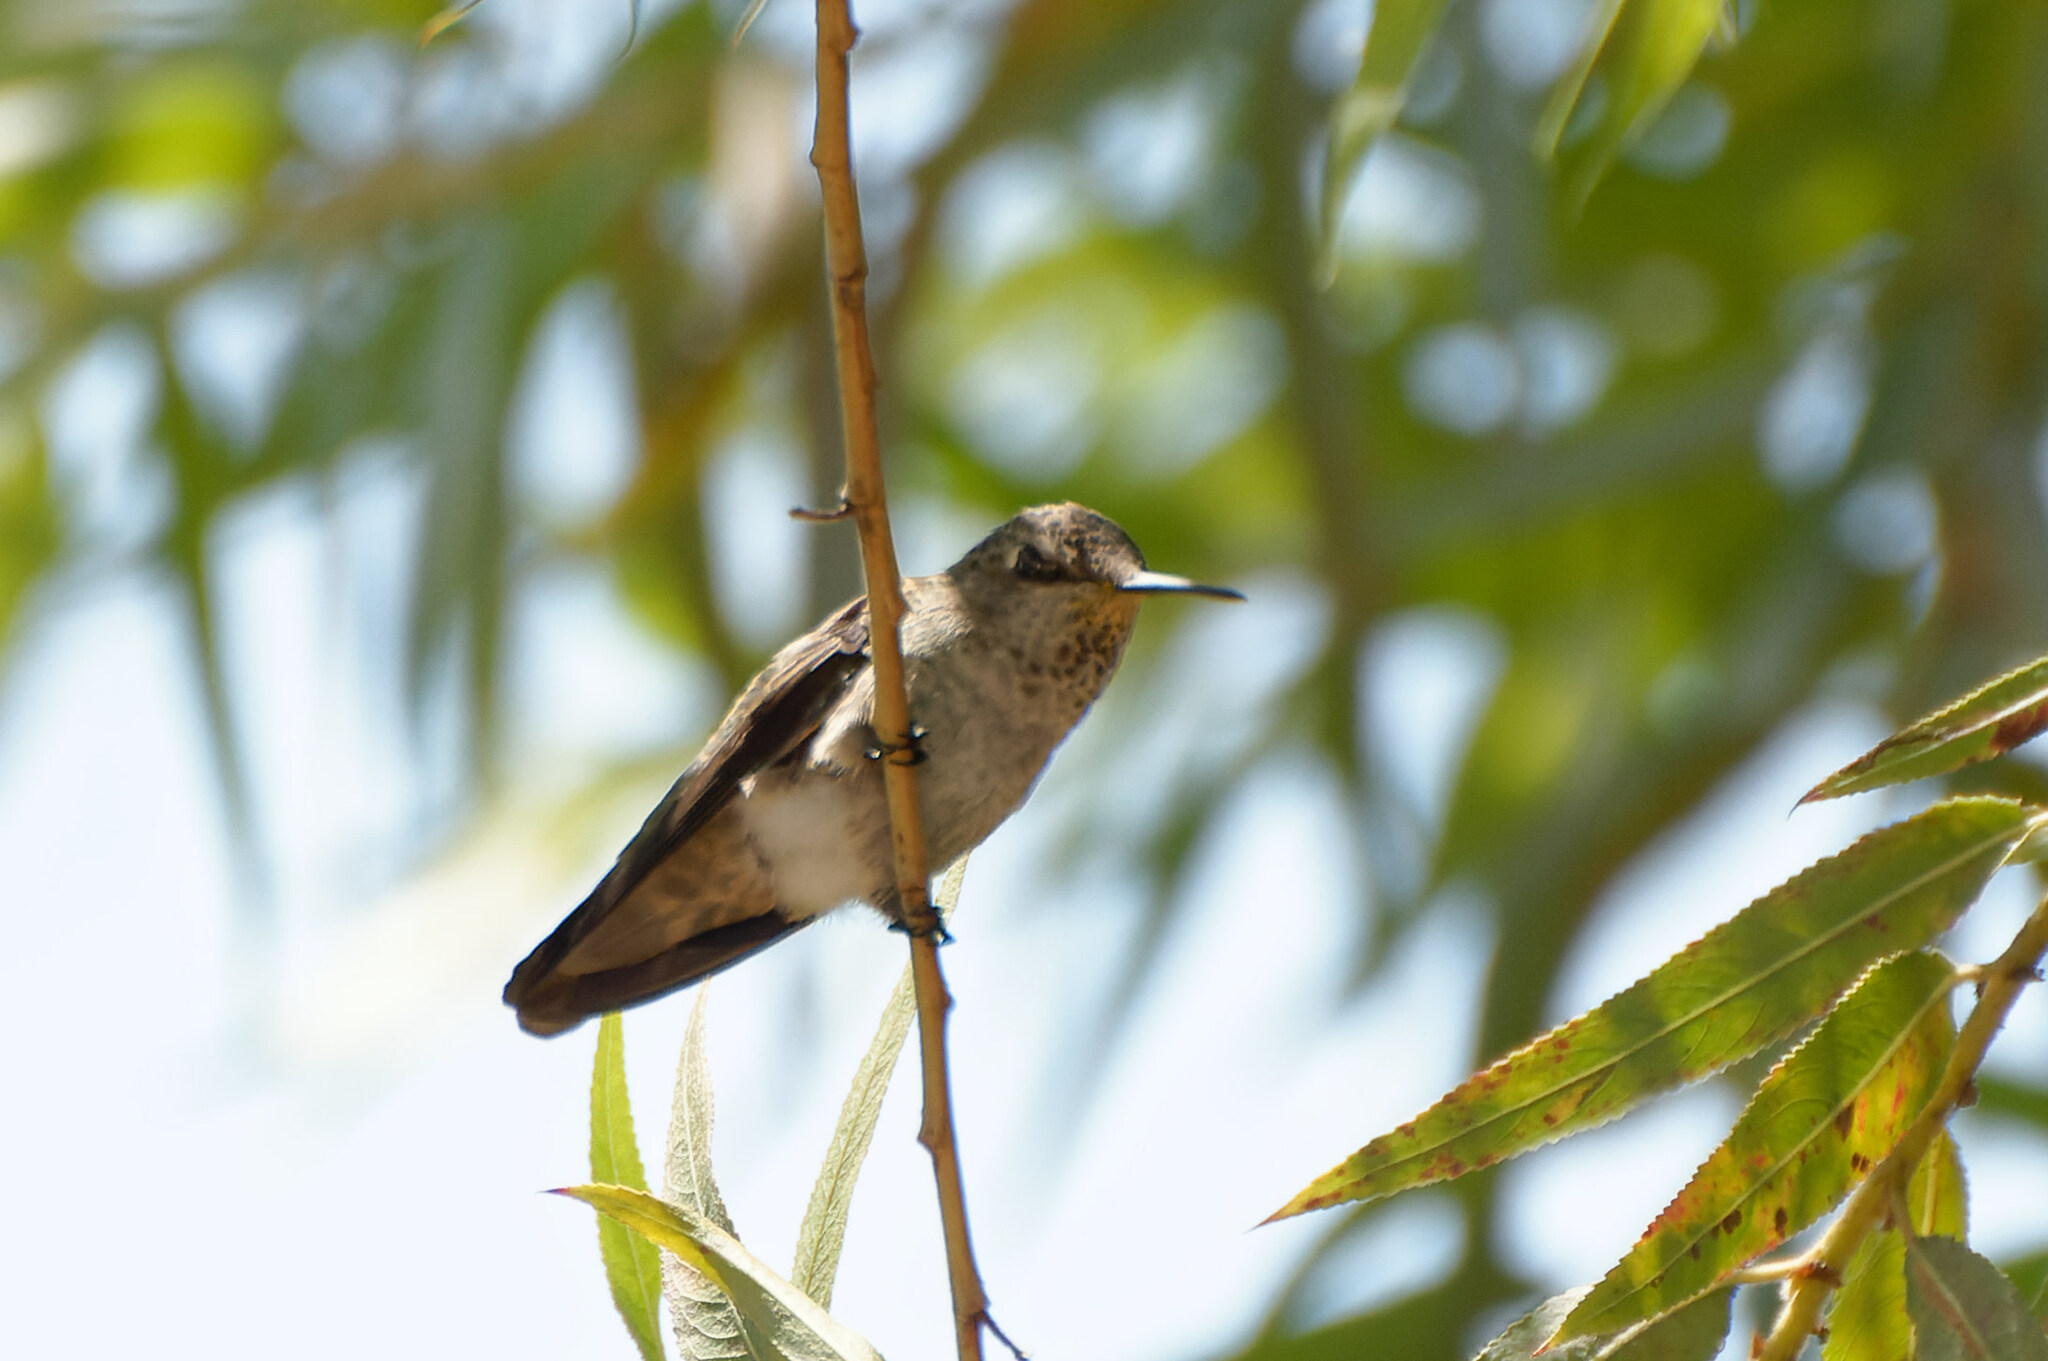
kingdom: Animalia
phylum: Chordata
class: Aves
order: Apodiformes
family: Trochilidae
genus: Calypte
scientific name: Calypte anna
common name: Anna's hummingbird
